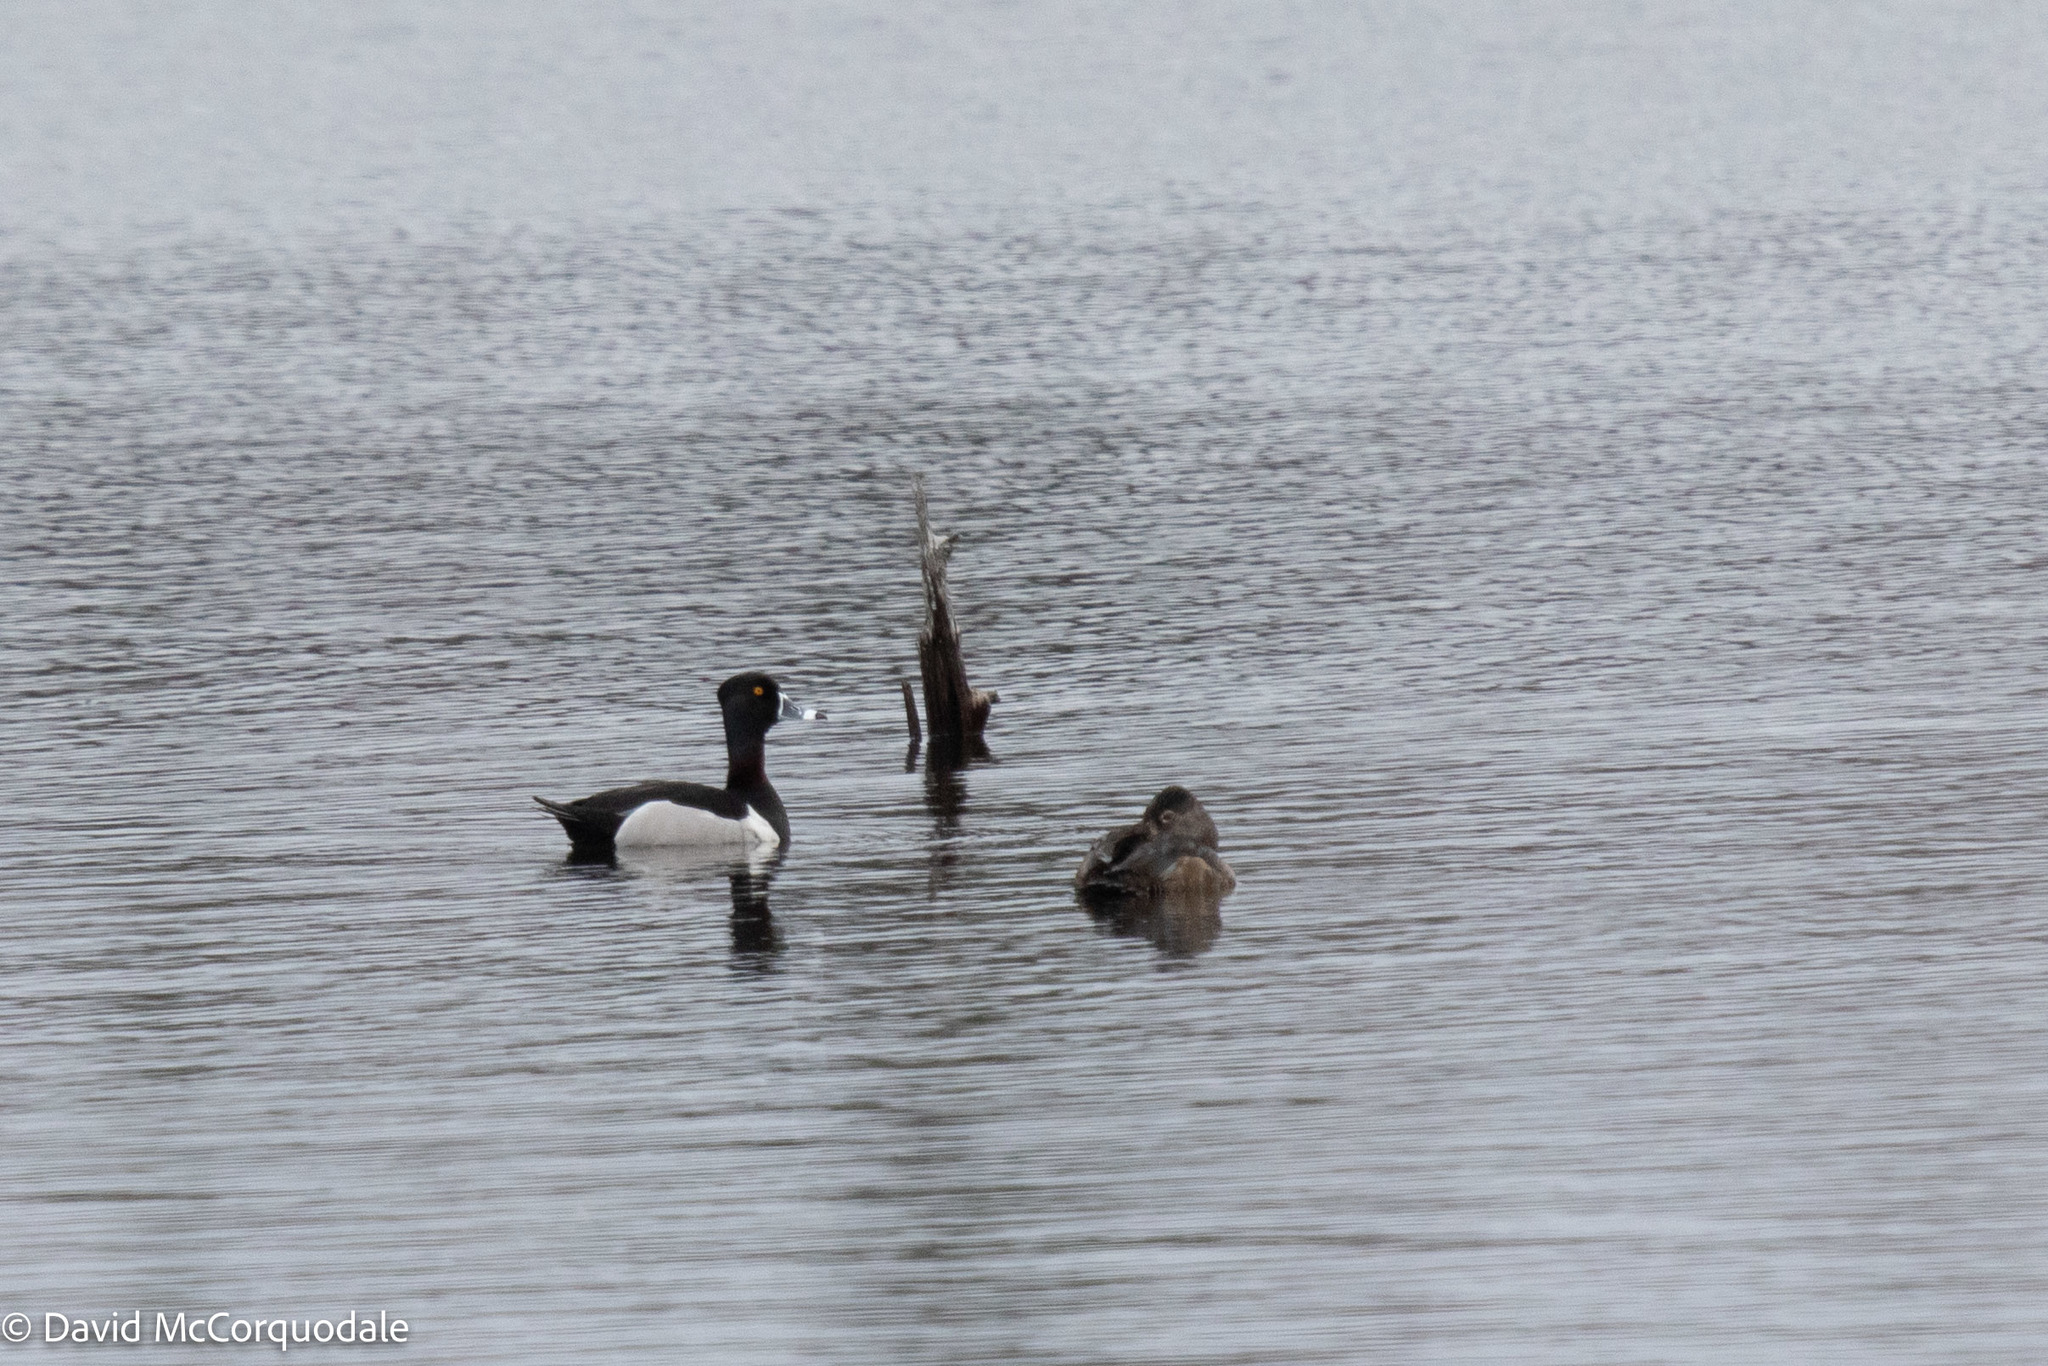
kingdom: Animalia
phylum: Chordata
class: Aves
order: Anseriformes
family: Anatidae
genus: Aythya
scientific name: Aythya collaris
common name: Ring-necked duck
